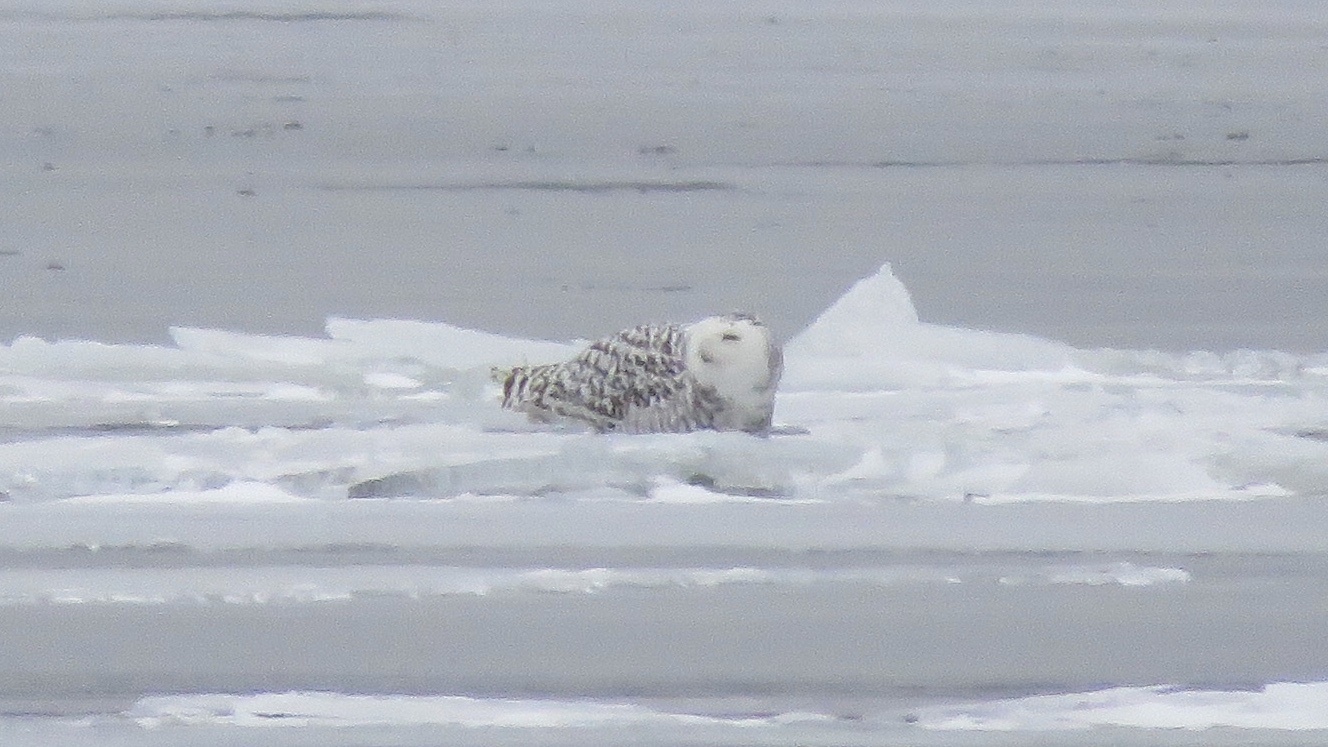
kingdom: Animalia
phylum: Chordata
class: Aves
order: Strigiformes
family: Strigidae
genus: Bubo
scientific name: Bubo scandiacus
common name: Snowy owl
